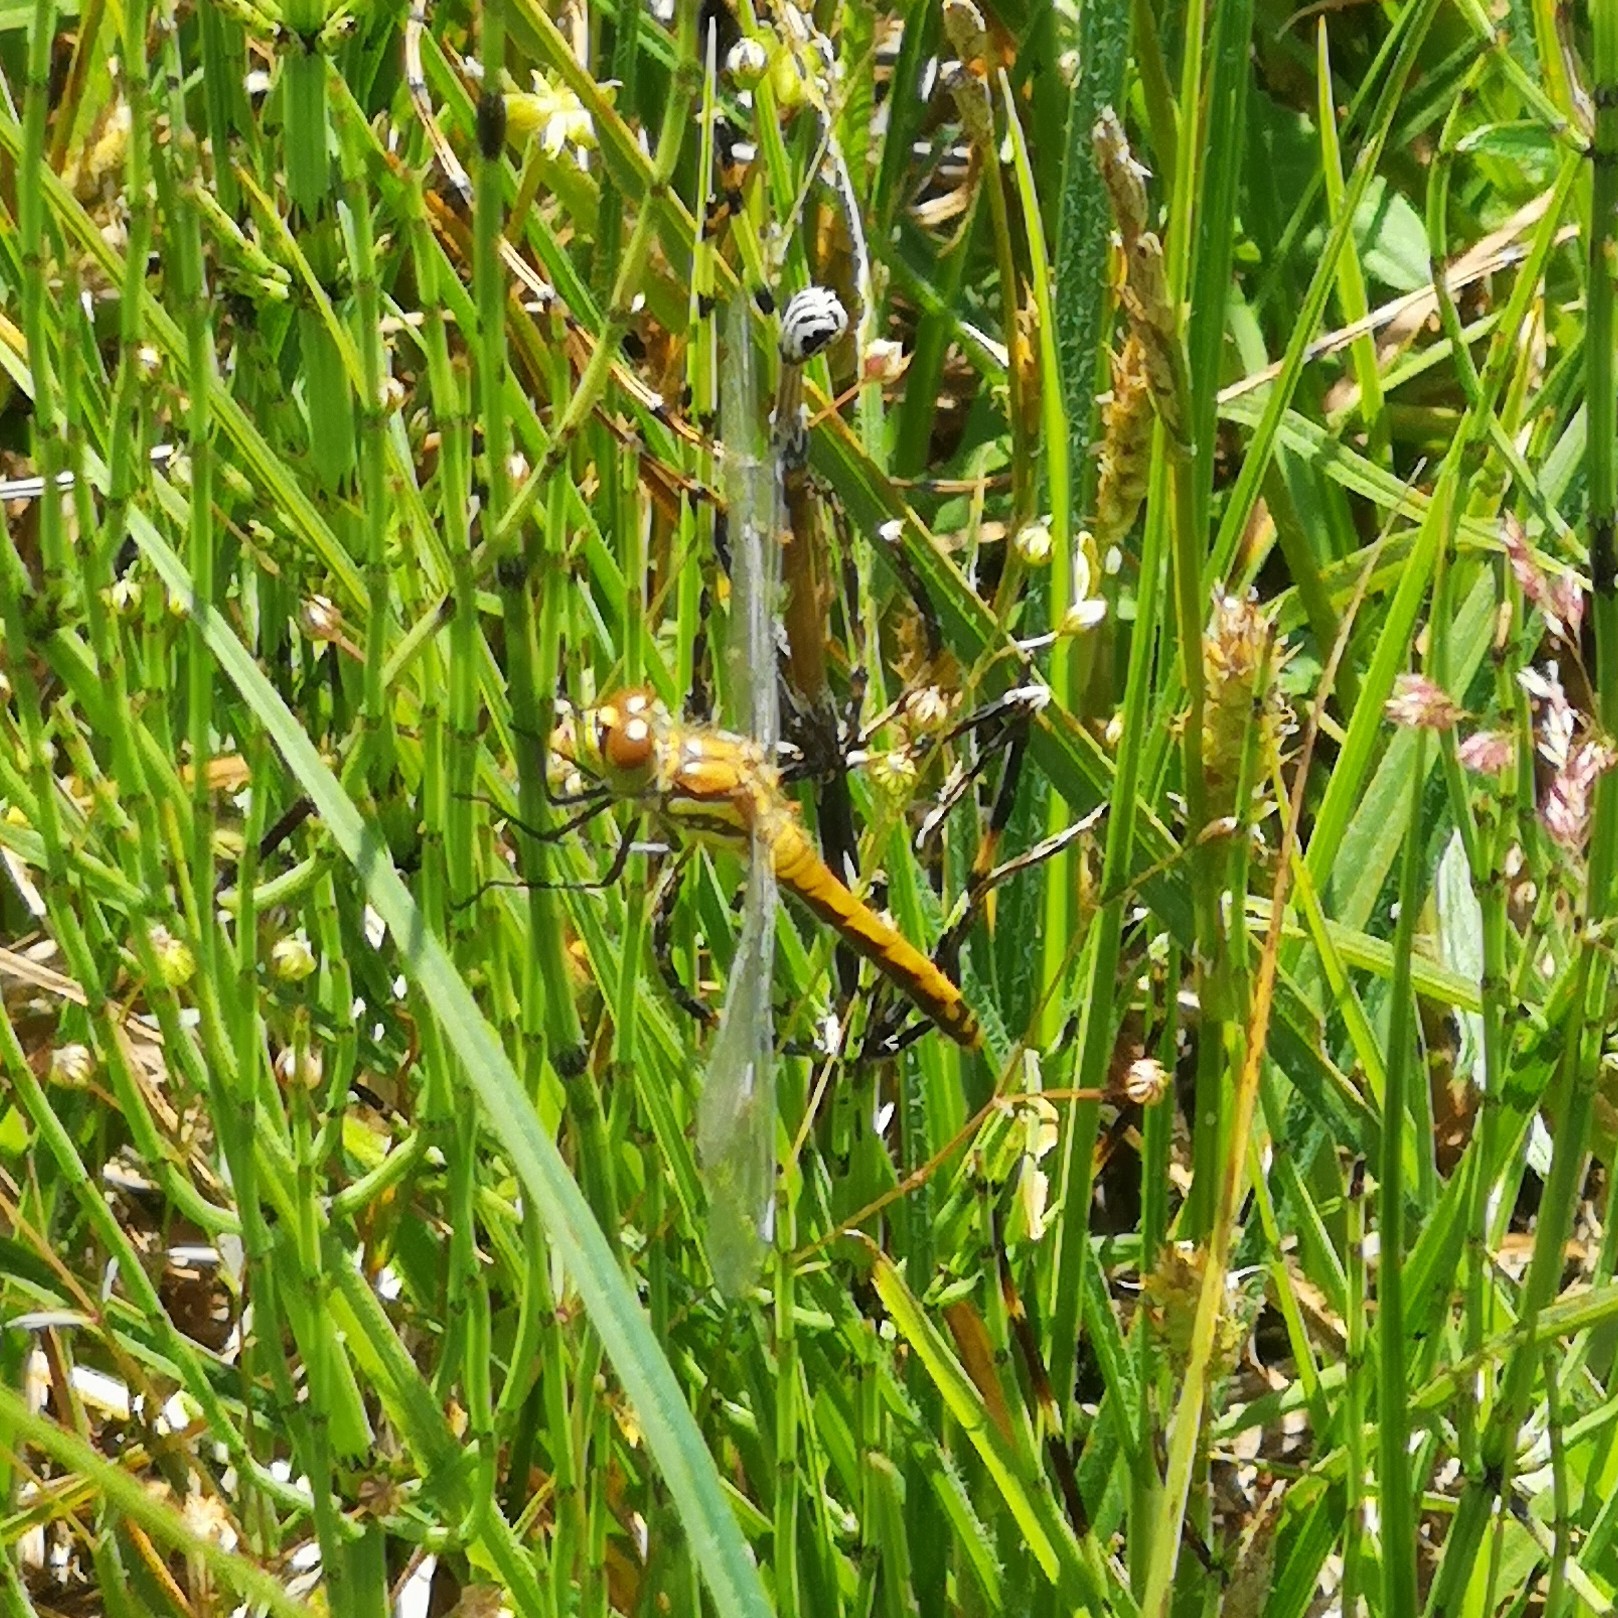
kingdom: Animalia
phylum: Arthropoda
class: Insecta
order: Odonata
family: Libellulidae
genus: Sympetrum
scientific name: Sympetrum danae
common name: Black darter
